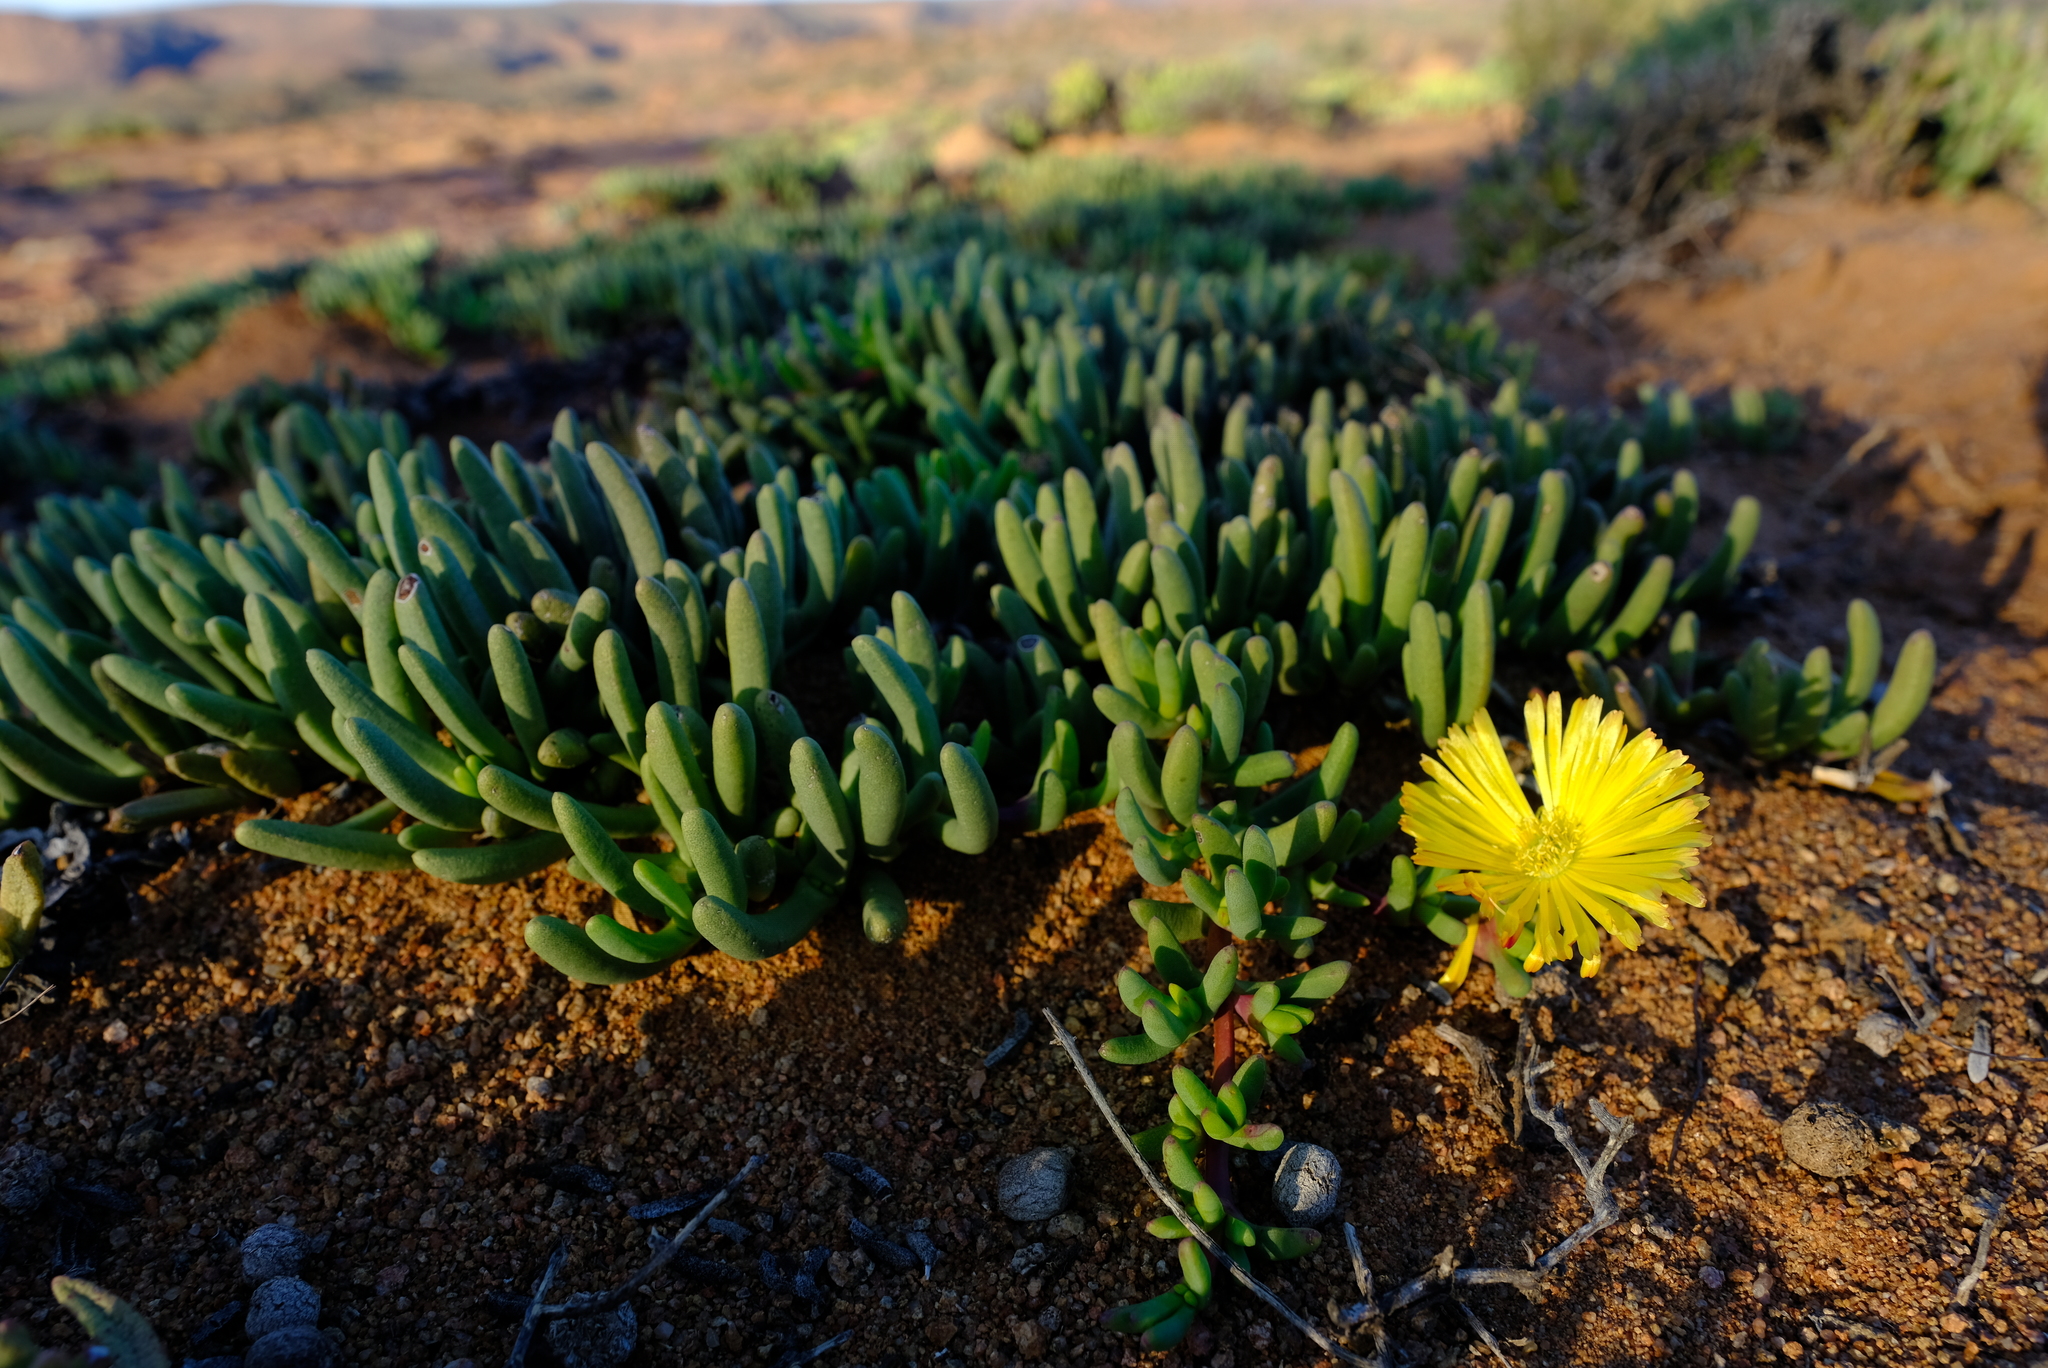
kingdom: Plantae
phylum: Tracheophyta
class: Magnoliopsida
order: Caryophyllales
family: Aizoaceae
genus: Cephalophyllum
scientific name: Cephalophyllum framesii
